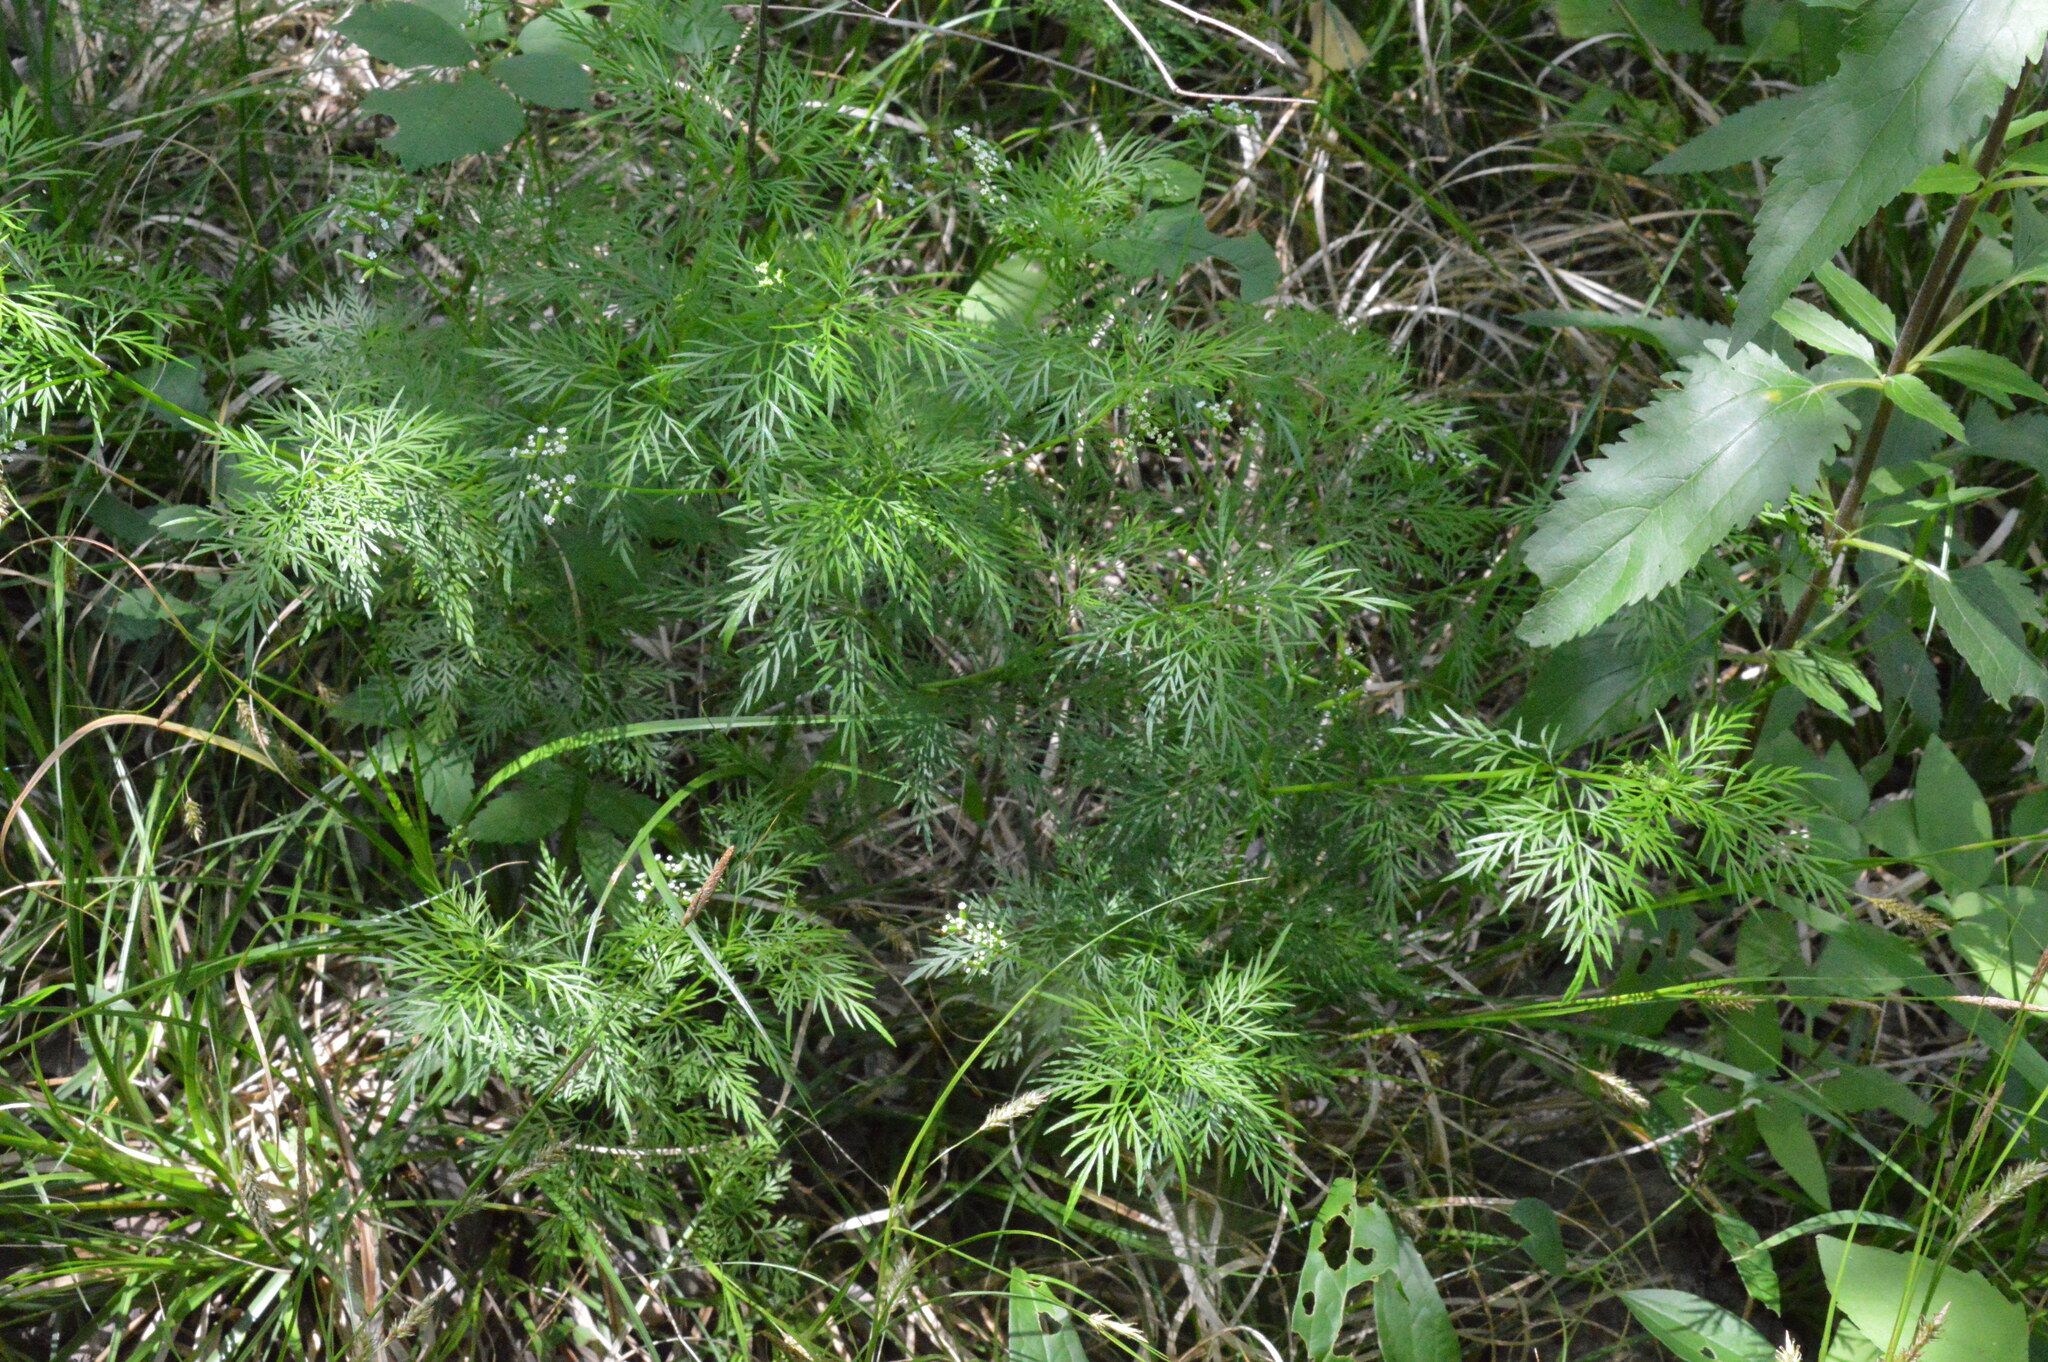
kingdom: Plantae
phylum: Tracheophyta
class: Magnoliopsida
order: Apiales
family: Apiaceae
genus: Trepocarpus
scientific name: Trepocarpus aethusae
